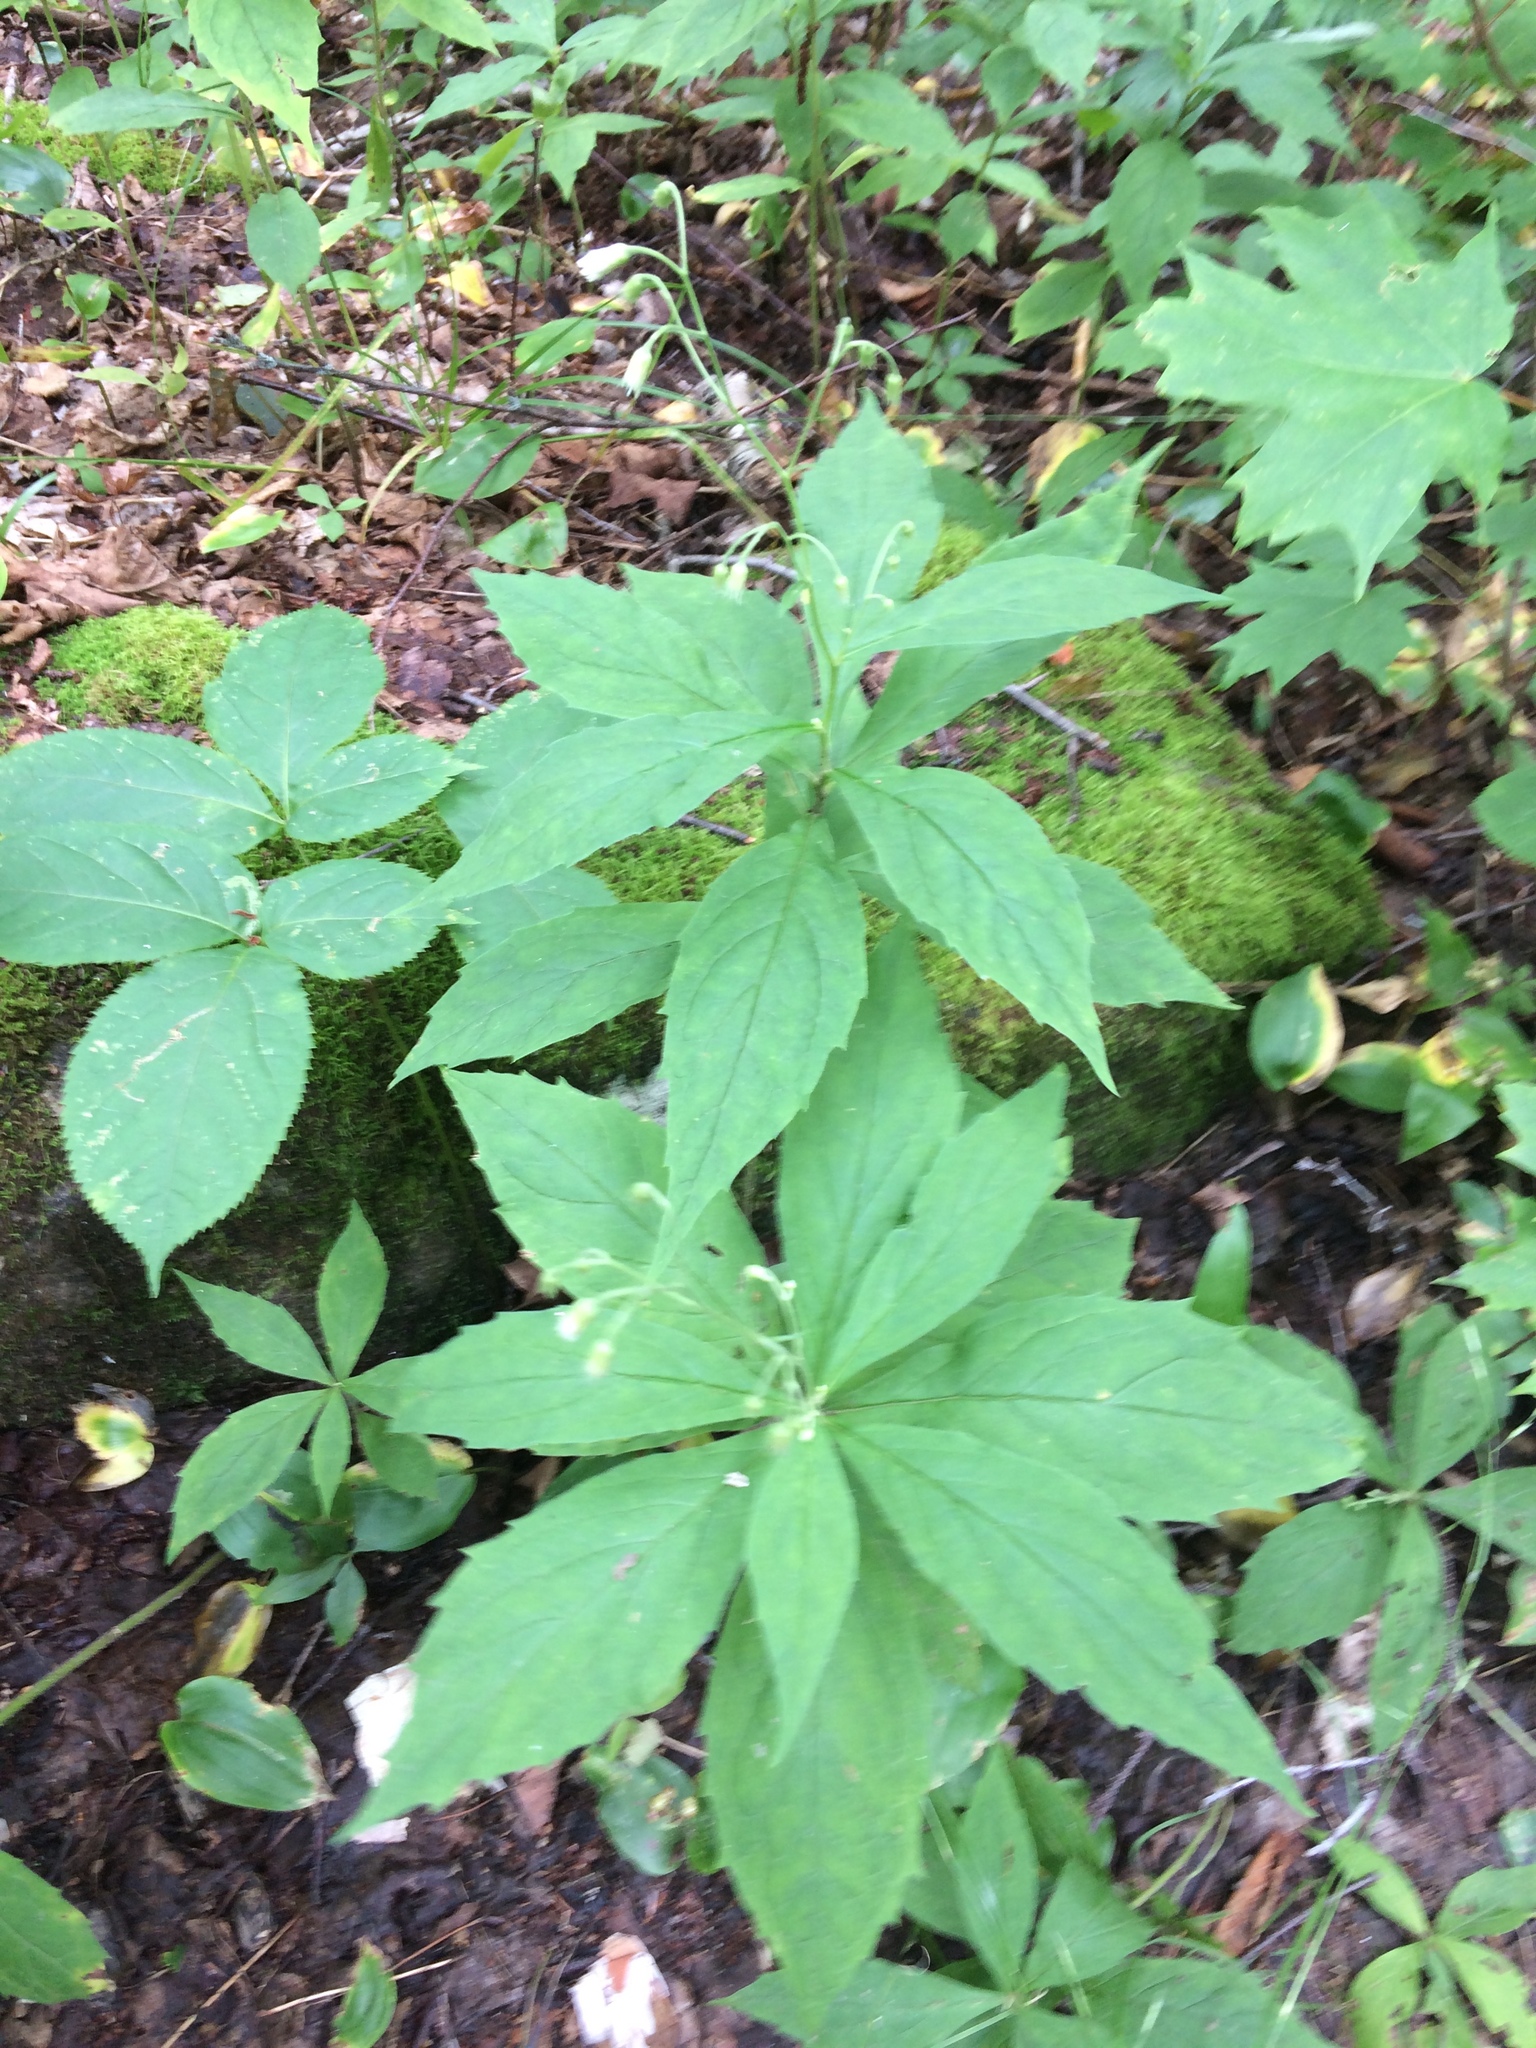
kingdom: Plantae
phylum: Tracheophyta
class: Magnoliopsida
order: Asterales
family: Asteraceae
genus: Oclemena
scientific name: Oclemena acuminata
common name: Mountain aster
